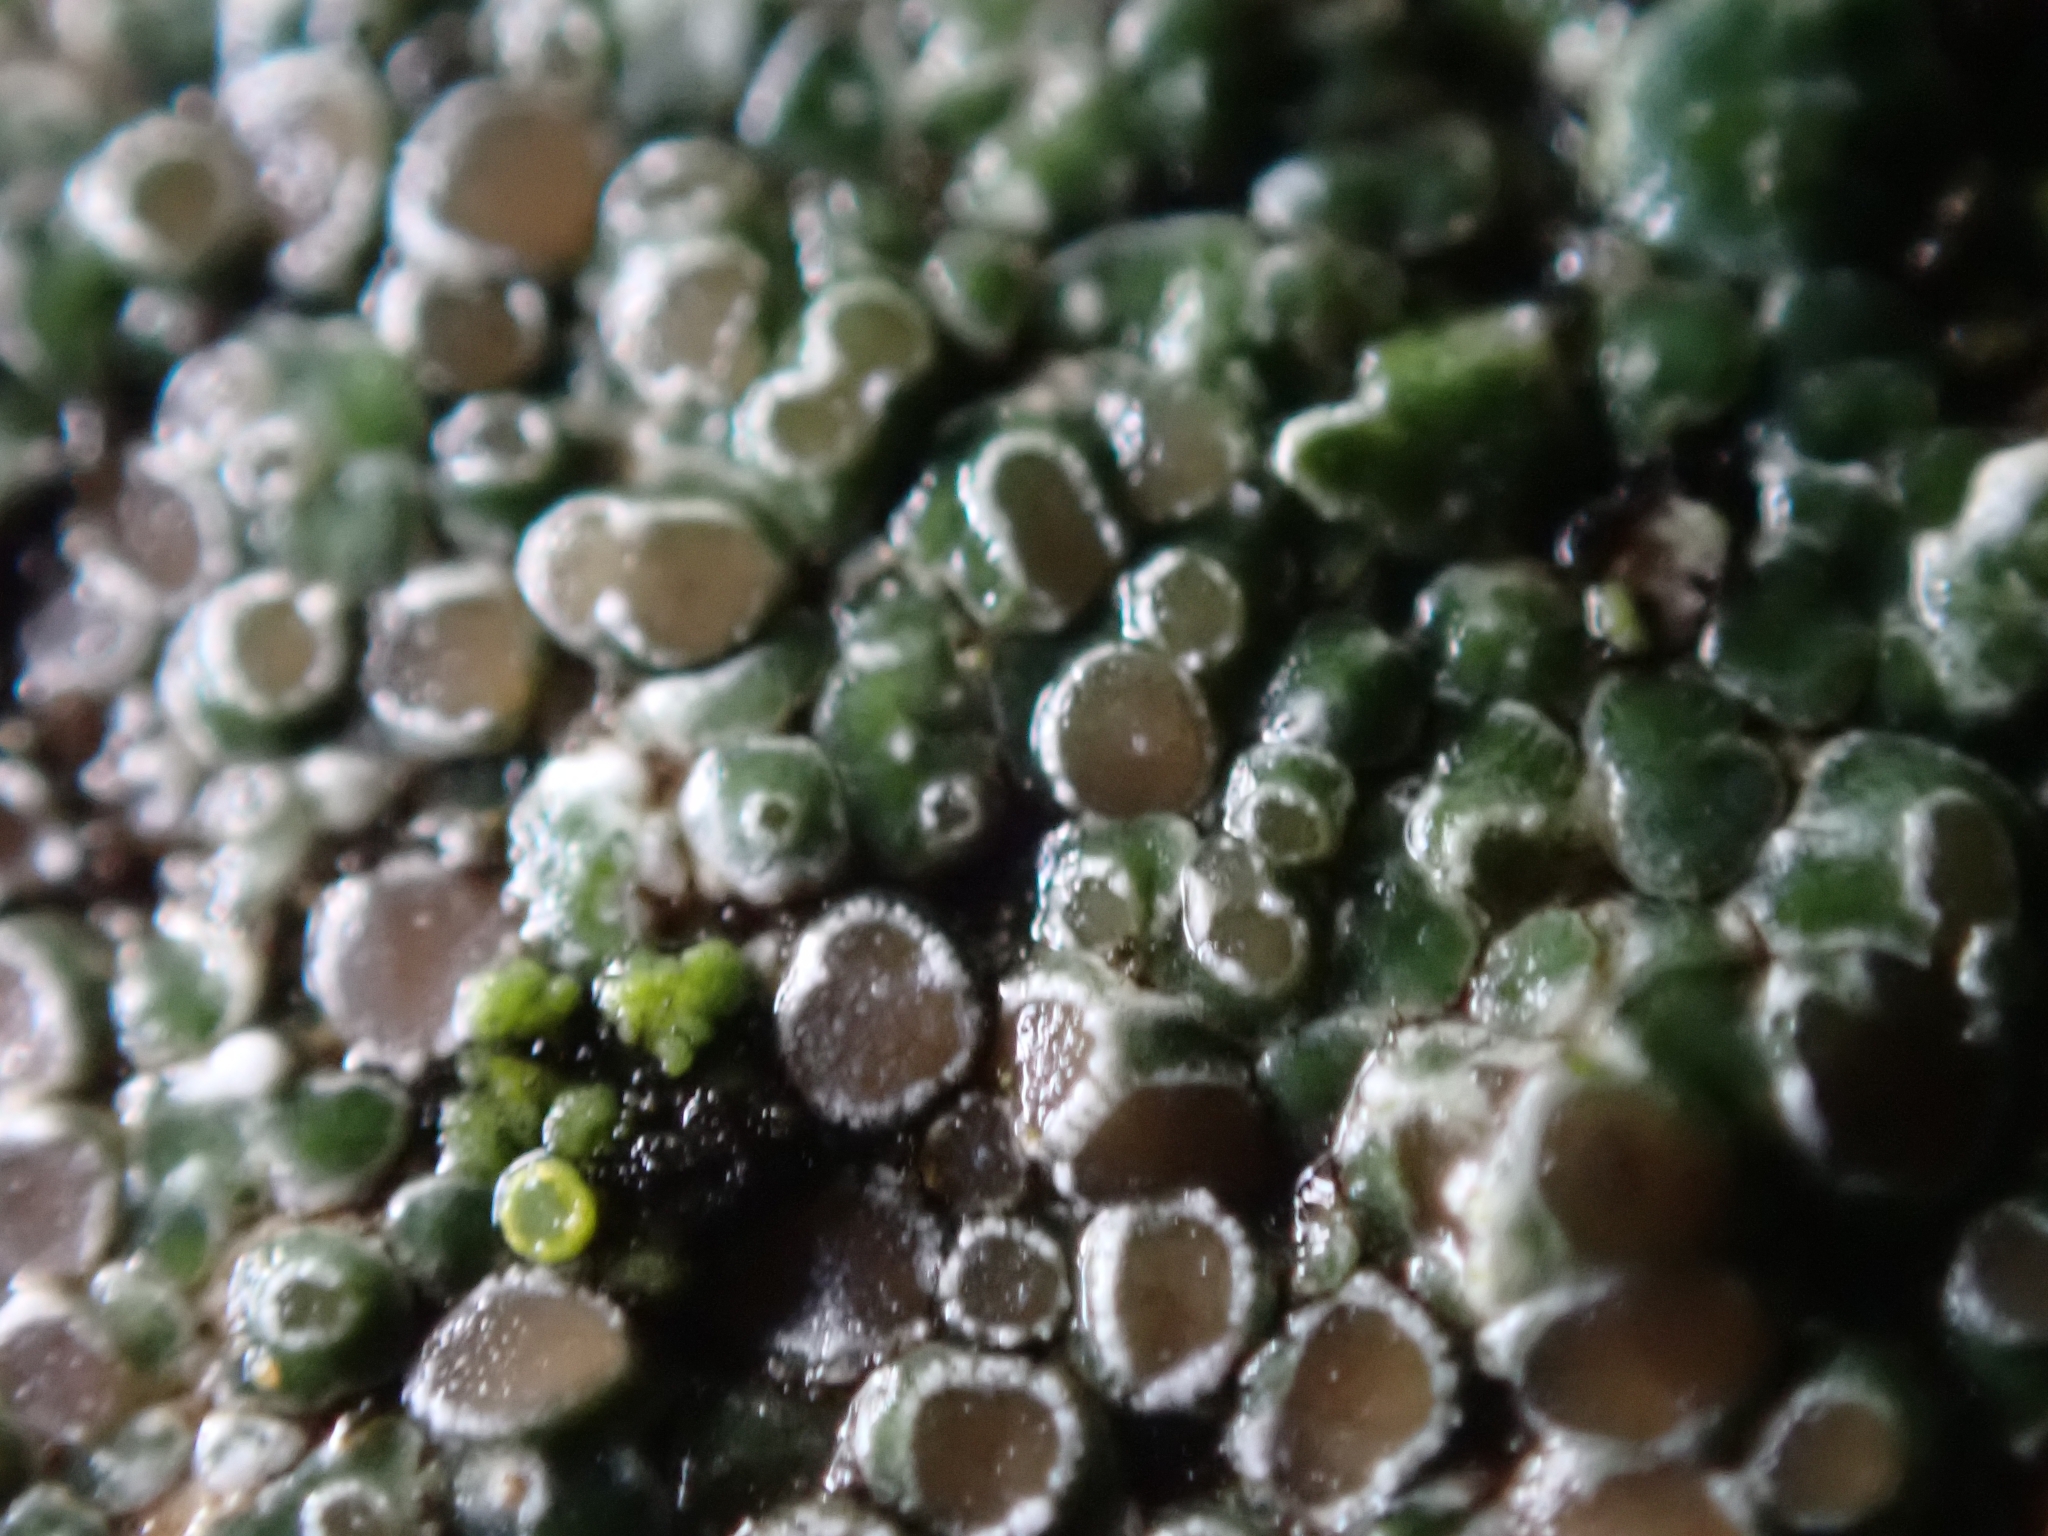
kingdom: Fungi
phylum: Ascomycota
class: Lecanoromycetes
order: Pertusariales
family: Megasporaceae
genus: Circinaria
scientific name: Circinaria contorta
